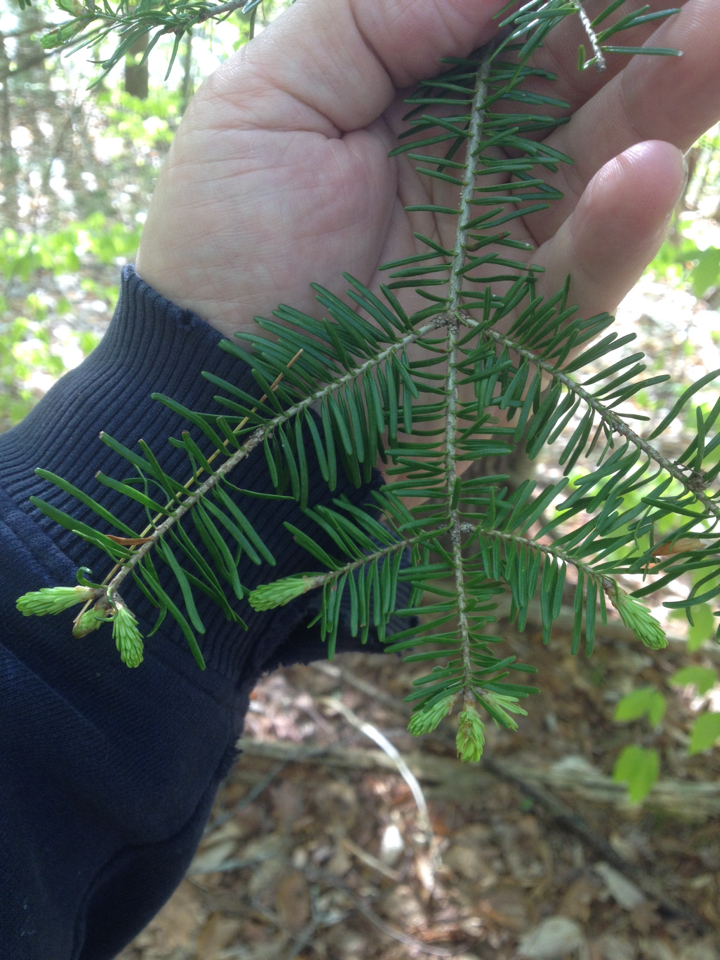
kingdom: Plantae
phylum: Tracheophyta
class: Pinopsida
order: Pinales
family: Pinaceae
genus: Abies
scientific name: Abies balsamea
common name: Balsam fir
